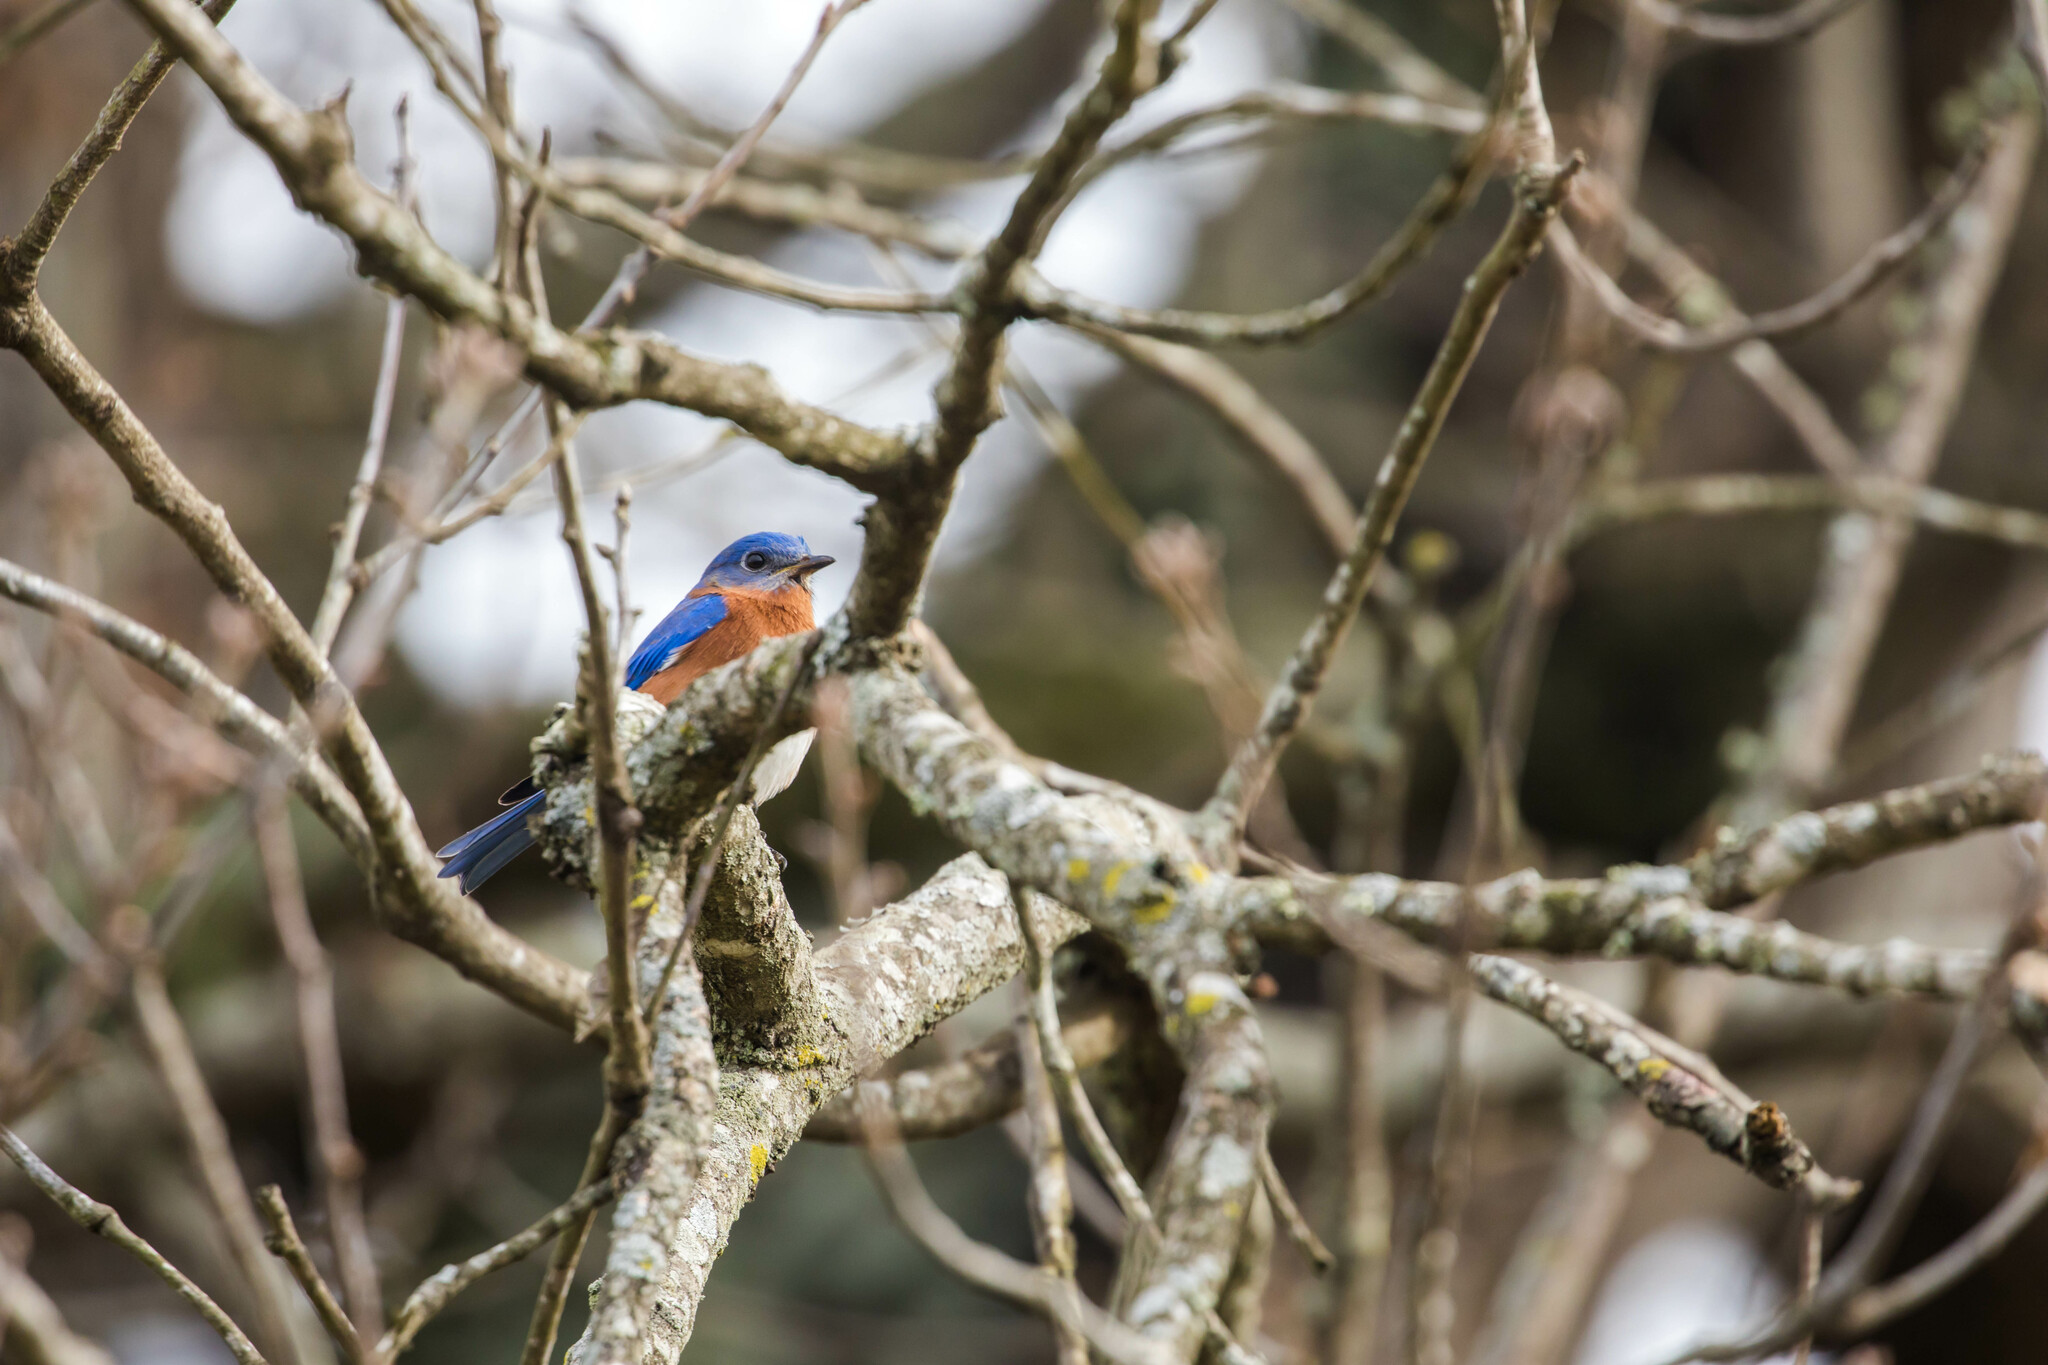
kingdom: Animalia
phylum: Chordata
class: Aves
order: Passeriformes
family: Turdidae
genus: Sialia
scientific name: Sialia sialis
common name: Eastern bluebird
